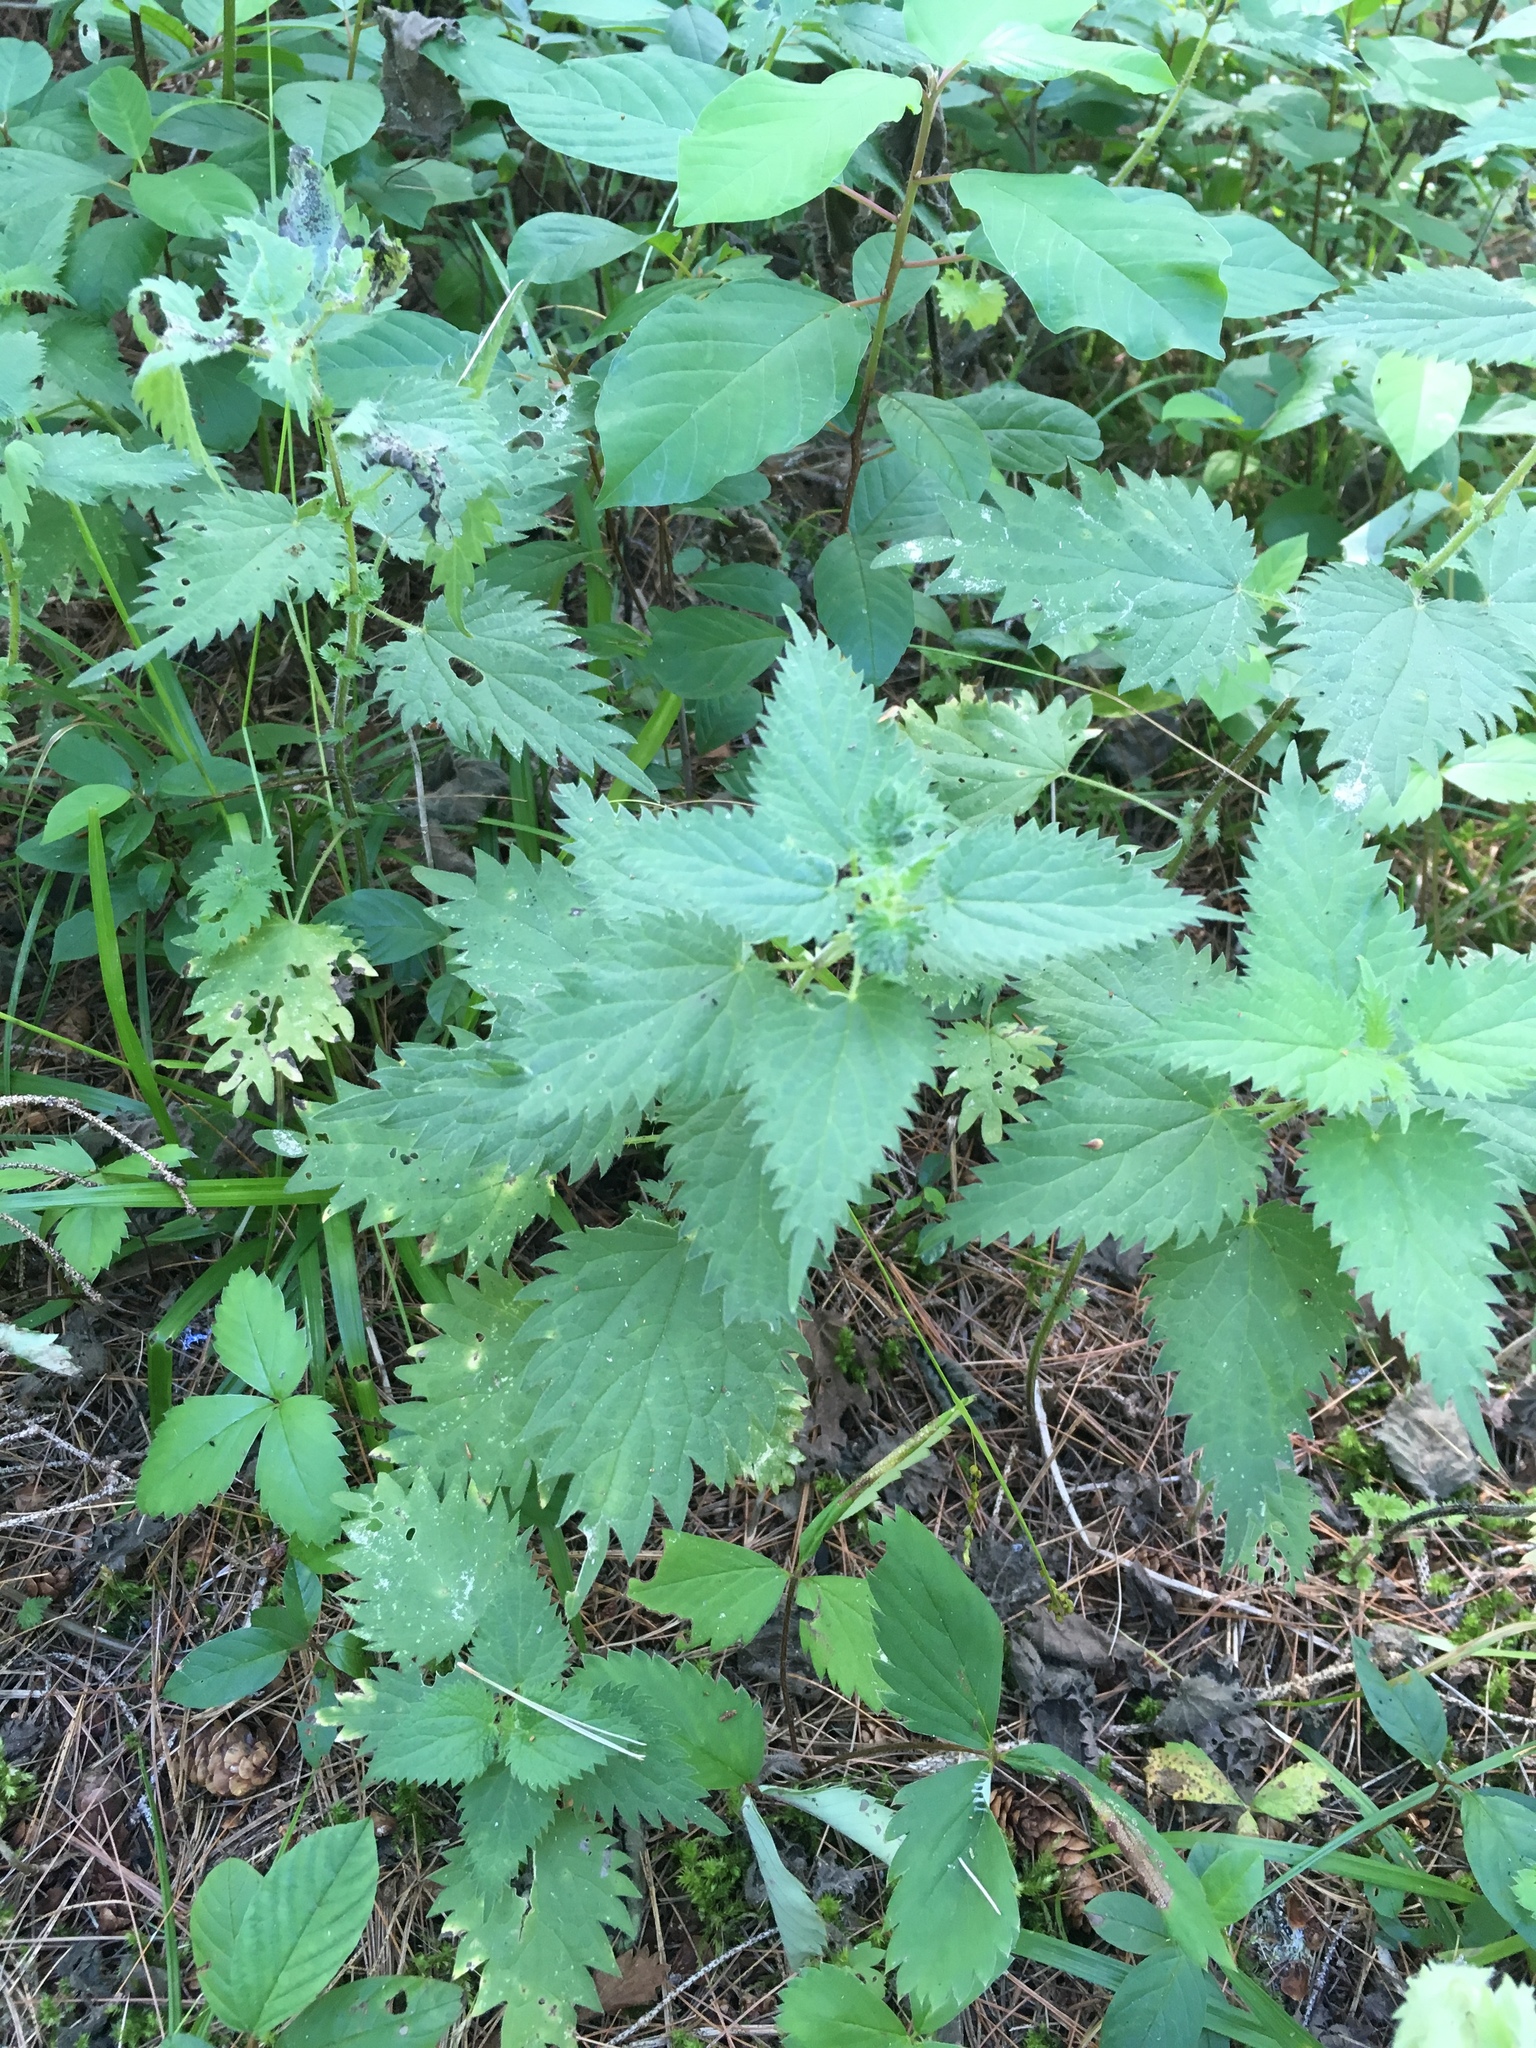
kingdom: Plantae
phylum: Tracheophyta
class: Magnoliopsida
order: Rosales
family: Urticaceae
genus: Urtica
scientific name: Urtica dioica
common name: Common nettle
